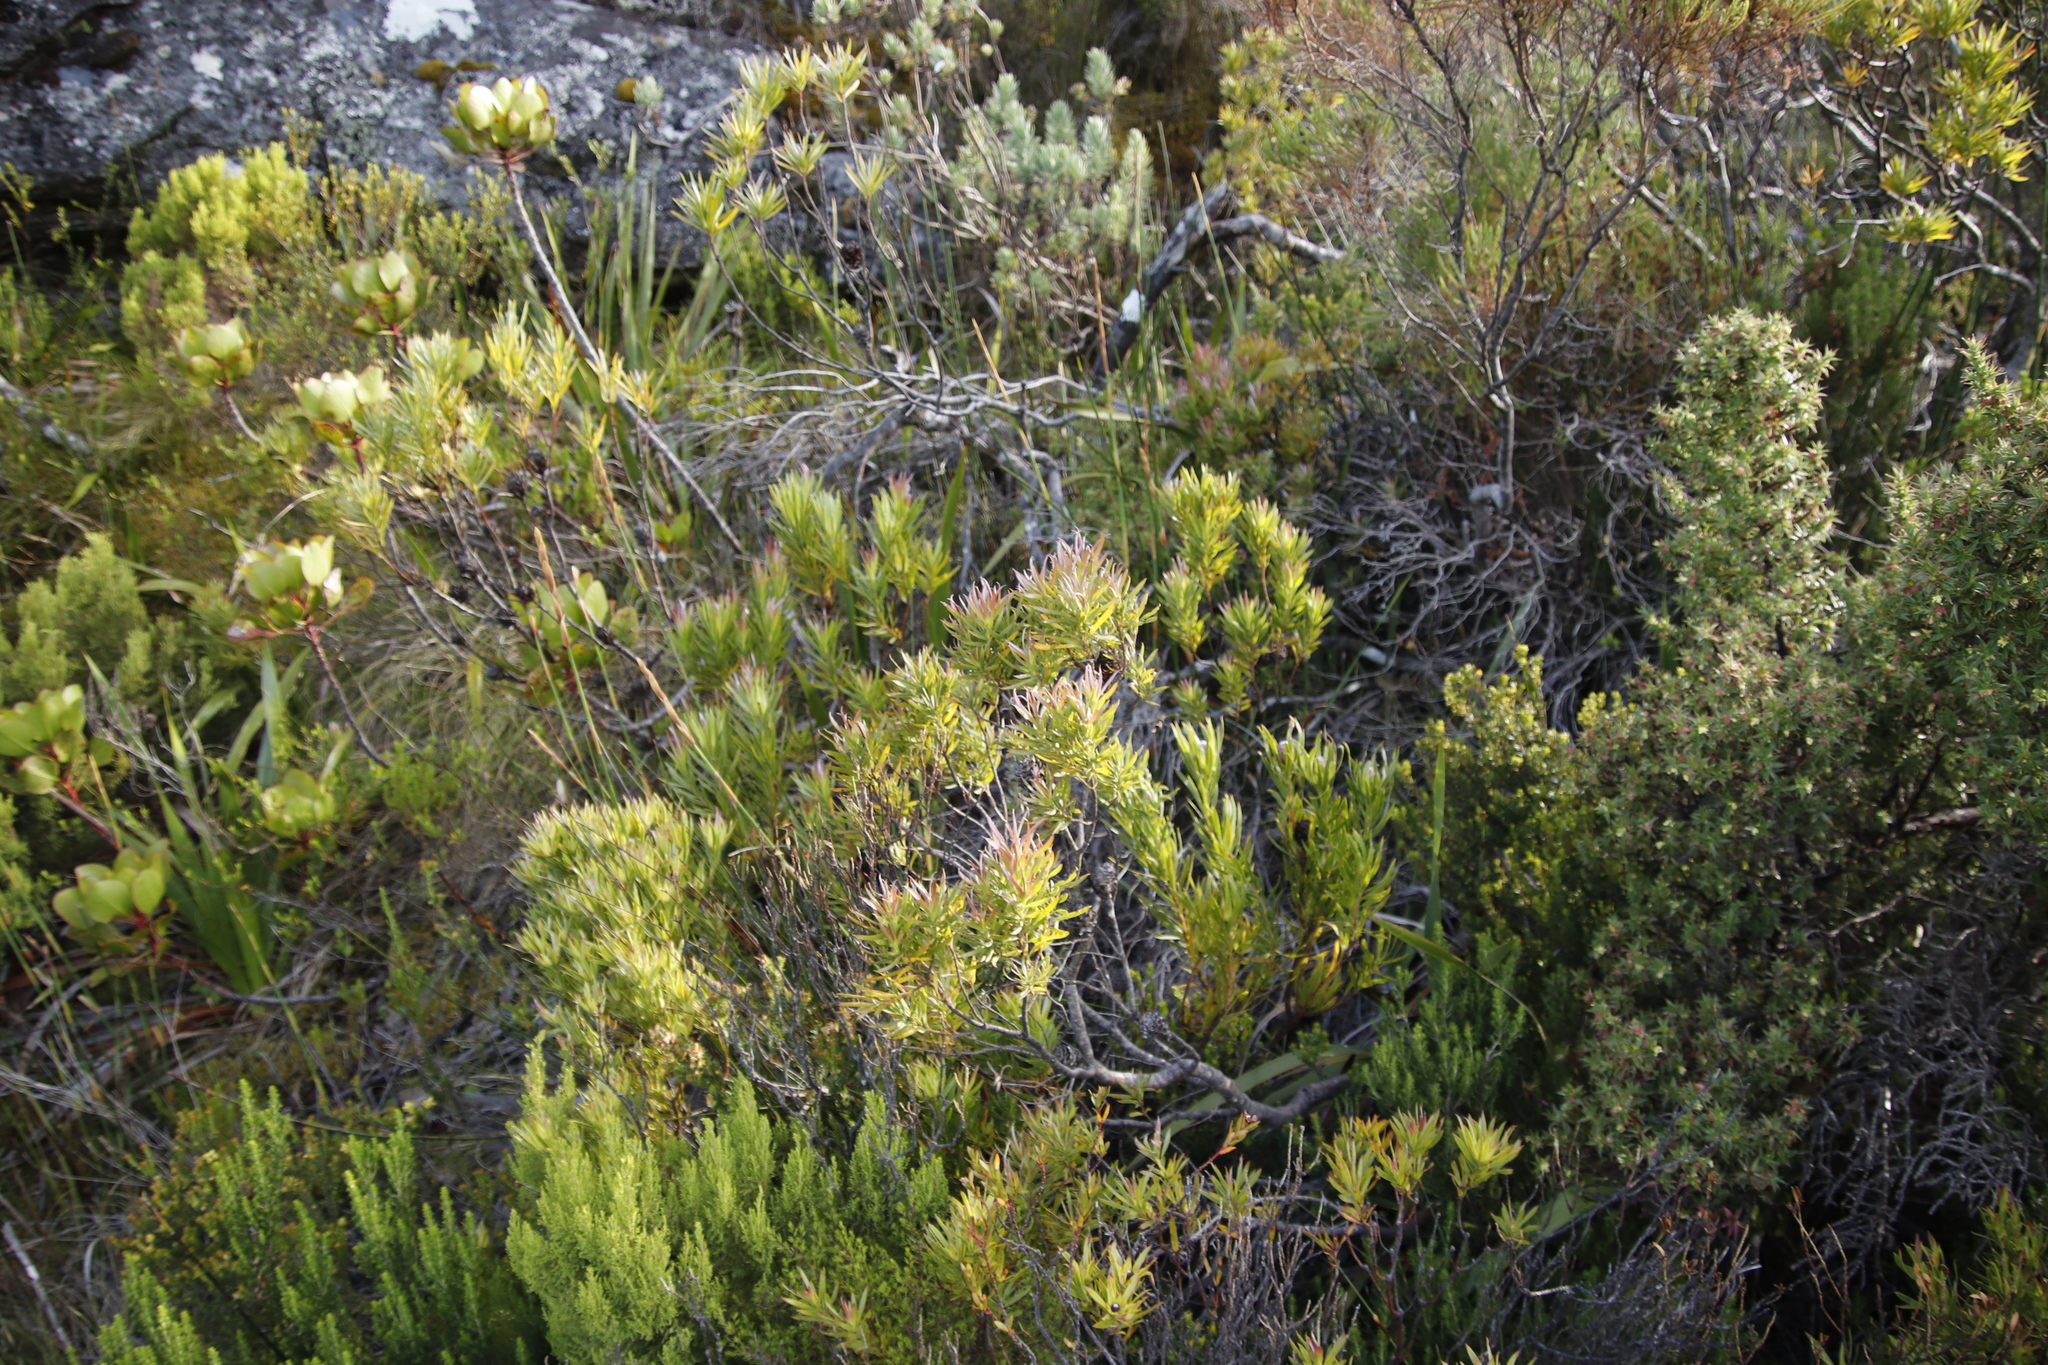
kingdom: Plantae
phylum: Tracheophyta
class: Magnoliopsida
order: Proteales
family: Proteaceae
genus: Leucadendron
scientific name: Leucadendron xanthoconus
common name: Sickle-leaf conebush
